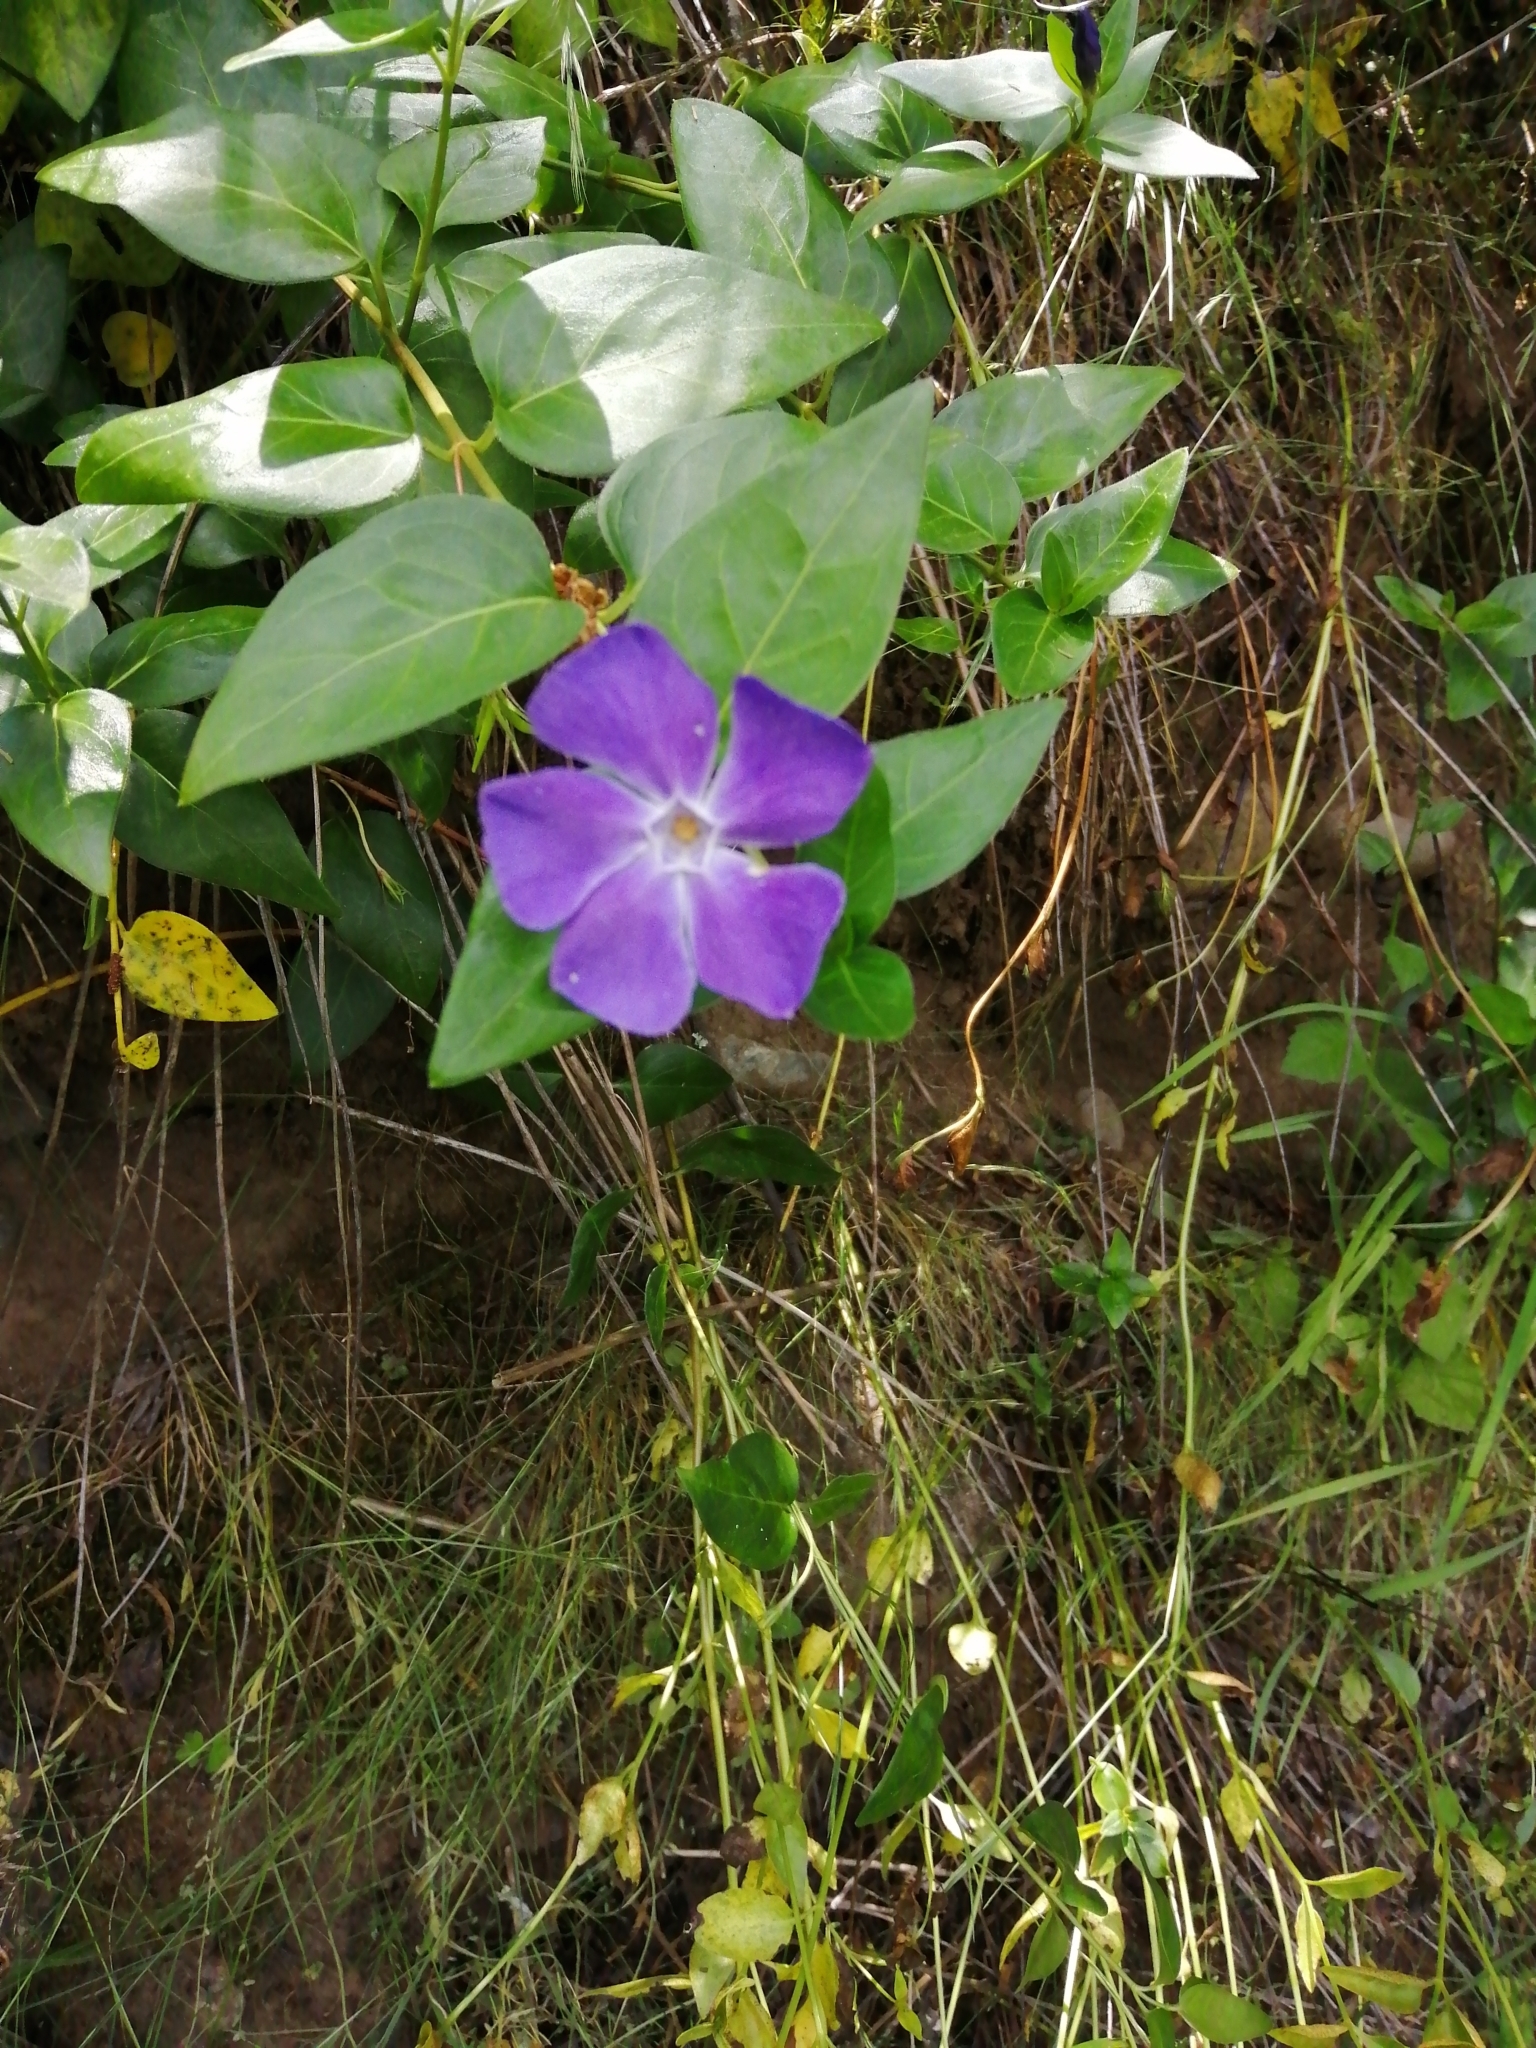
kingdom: Plantae
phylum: Tracheophyta
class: Magnoliopsida
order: Gentianales
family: Apocynaceae
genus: Vinca
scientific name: Vinca major
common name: Greater periwinkle
